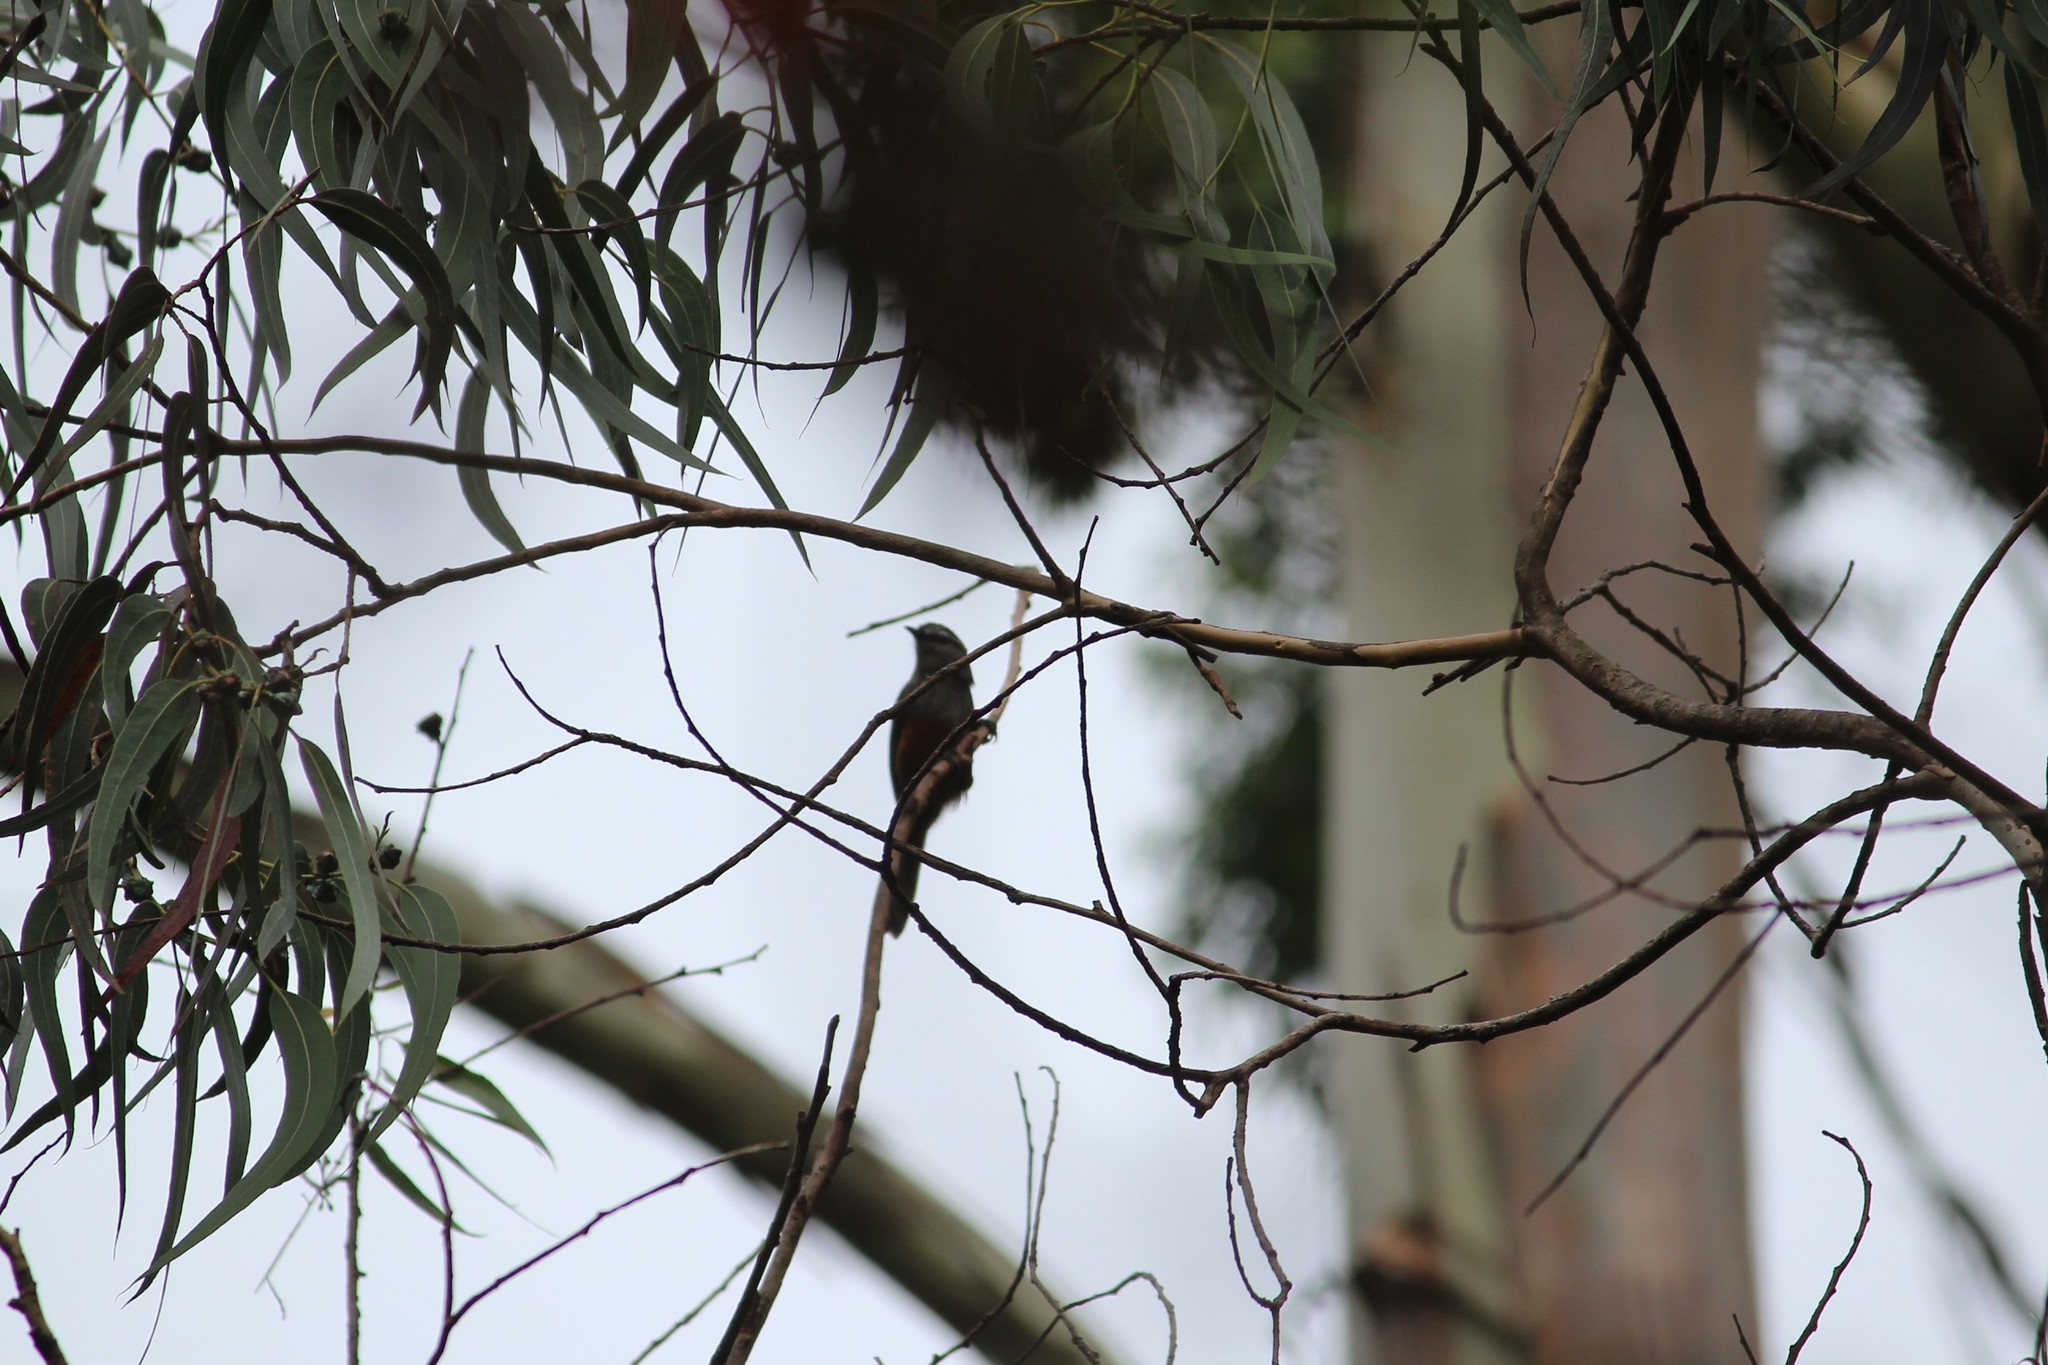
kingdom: Animalia
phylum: Chordata
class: Aves
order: Passeriformes
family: Leiothrichidae
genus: Trochalopteron
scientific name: Trochalopteron fairbanki
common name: Kerala laughingthrush
